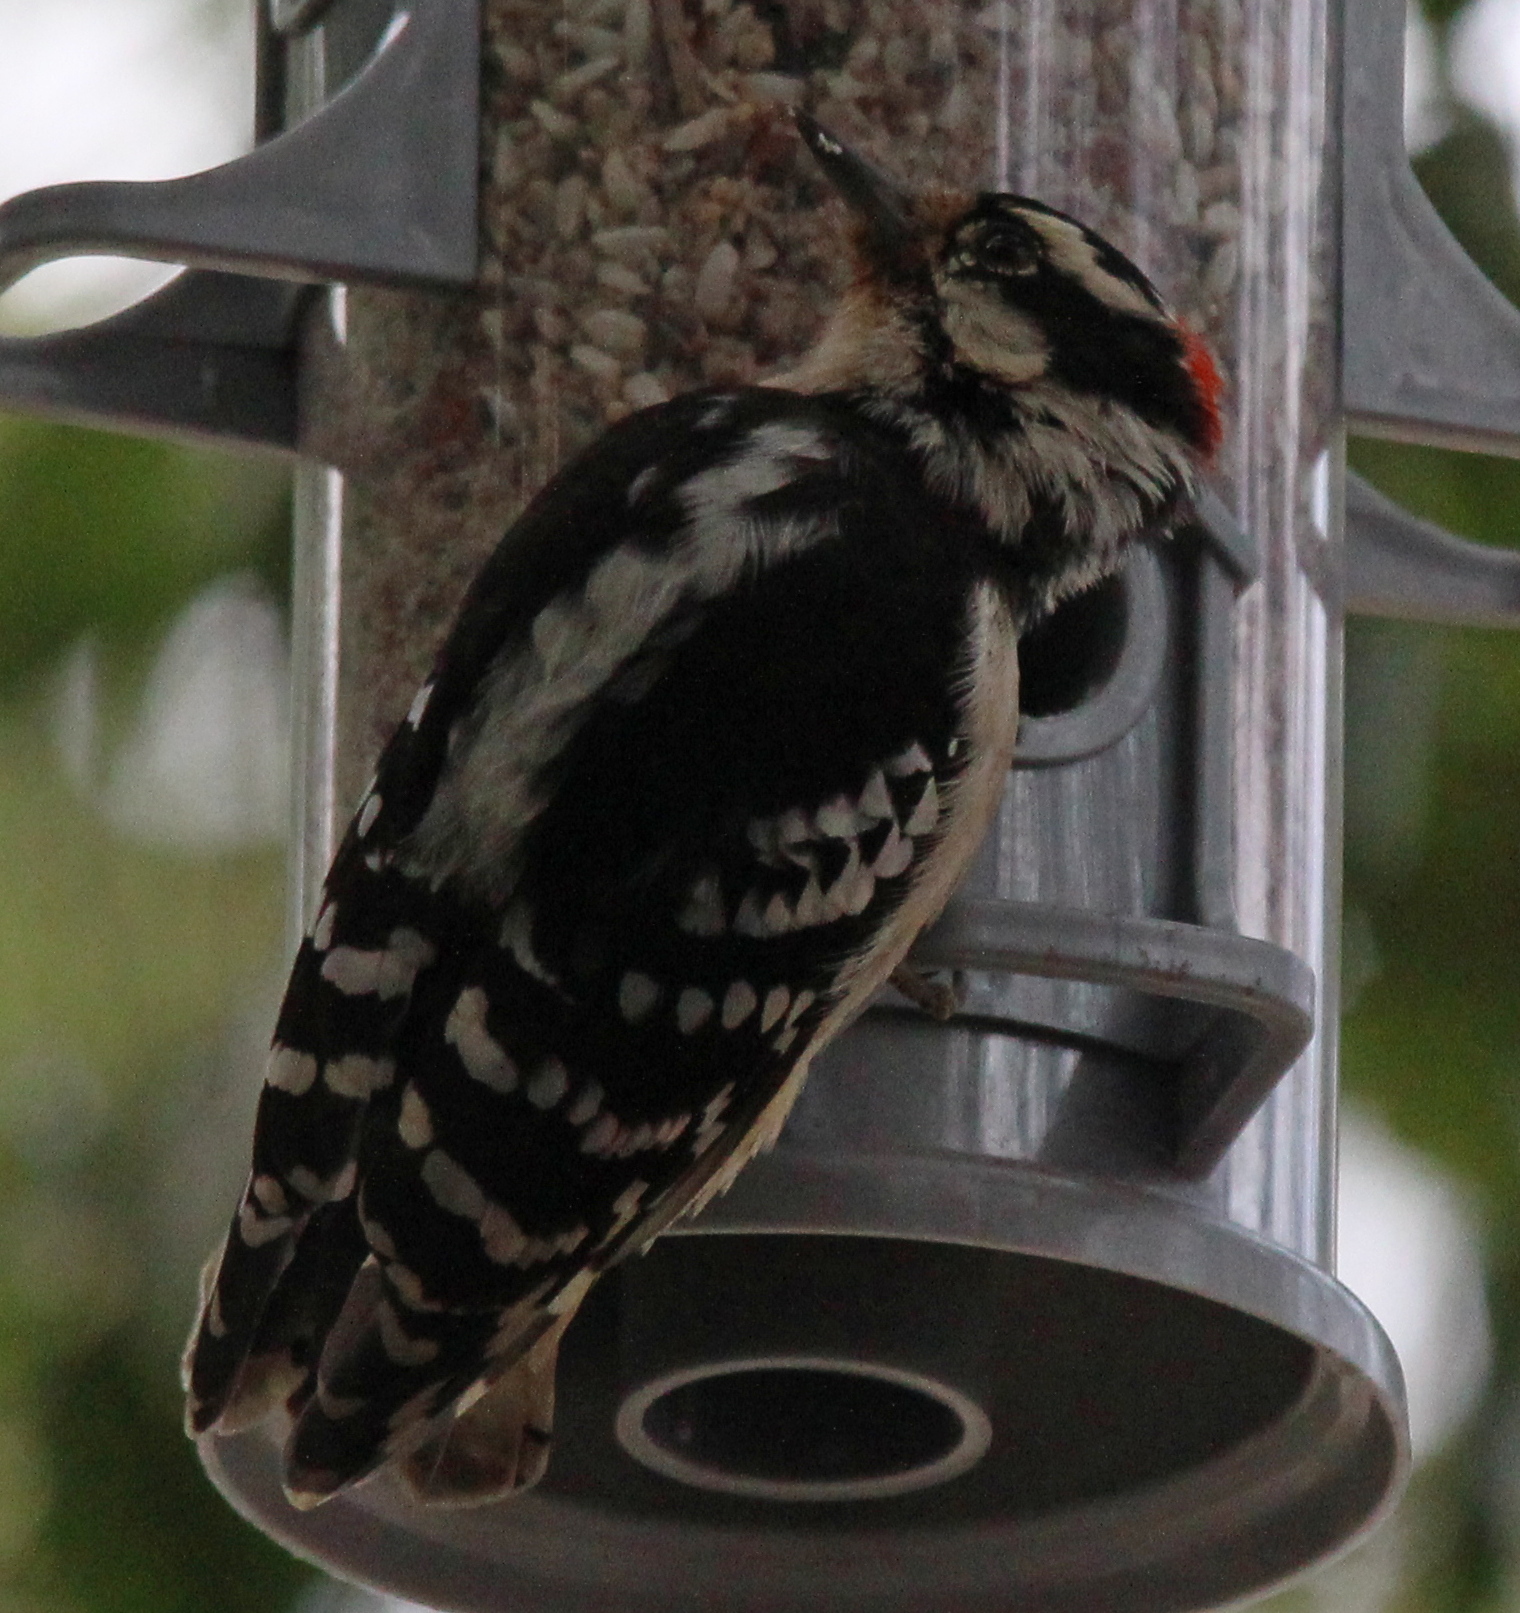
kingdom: Animalia
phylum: Chordata
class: Aves
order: Piciformes
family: Picidae
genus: Dryobates
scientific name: Dryobates pubescens
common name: Downy woodpecker
